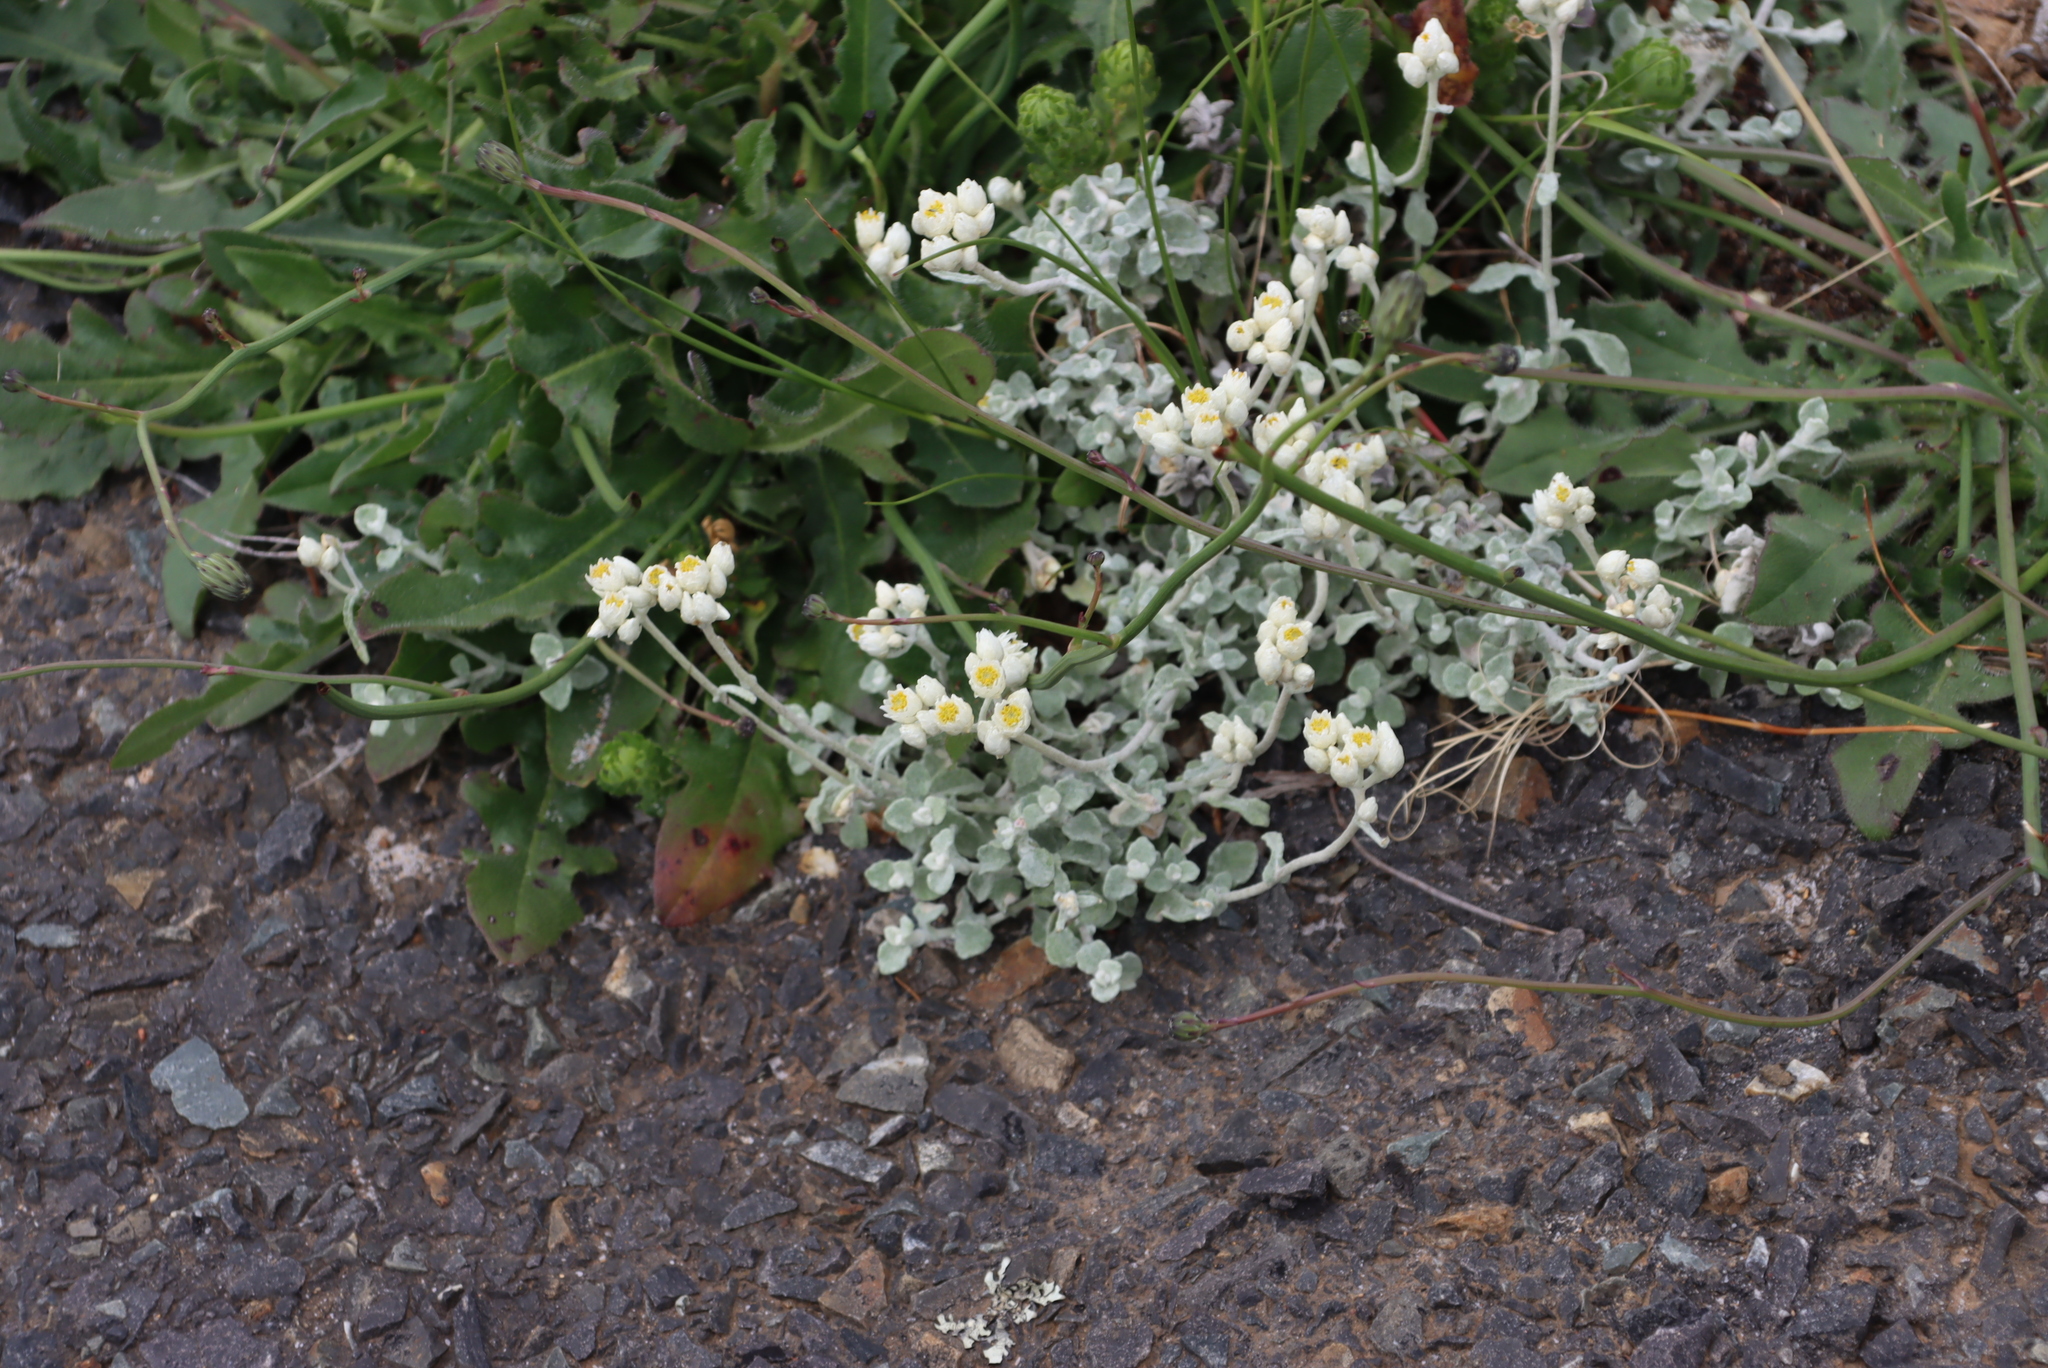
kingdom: Plantae
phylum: Tracheophyta
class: Magnoliopsida
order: Asterales
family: Asteraceae
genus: Helichrysum
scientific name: Helichrysum pandurifolium
